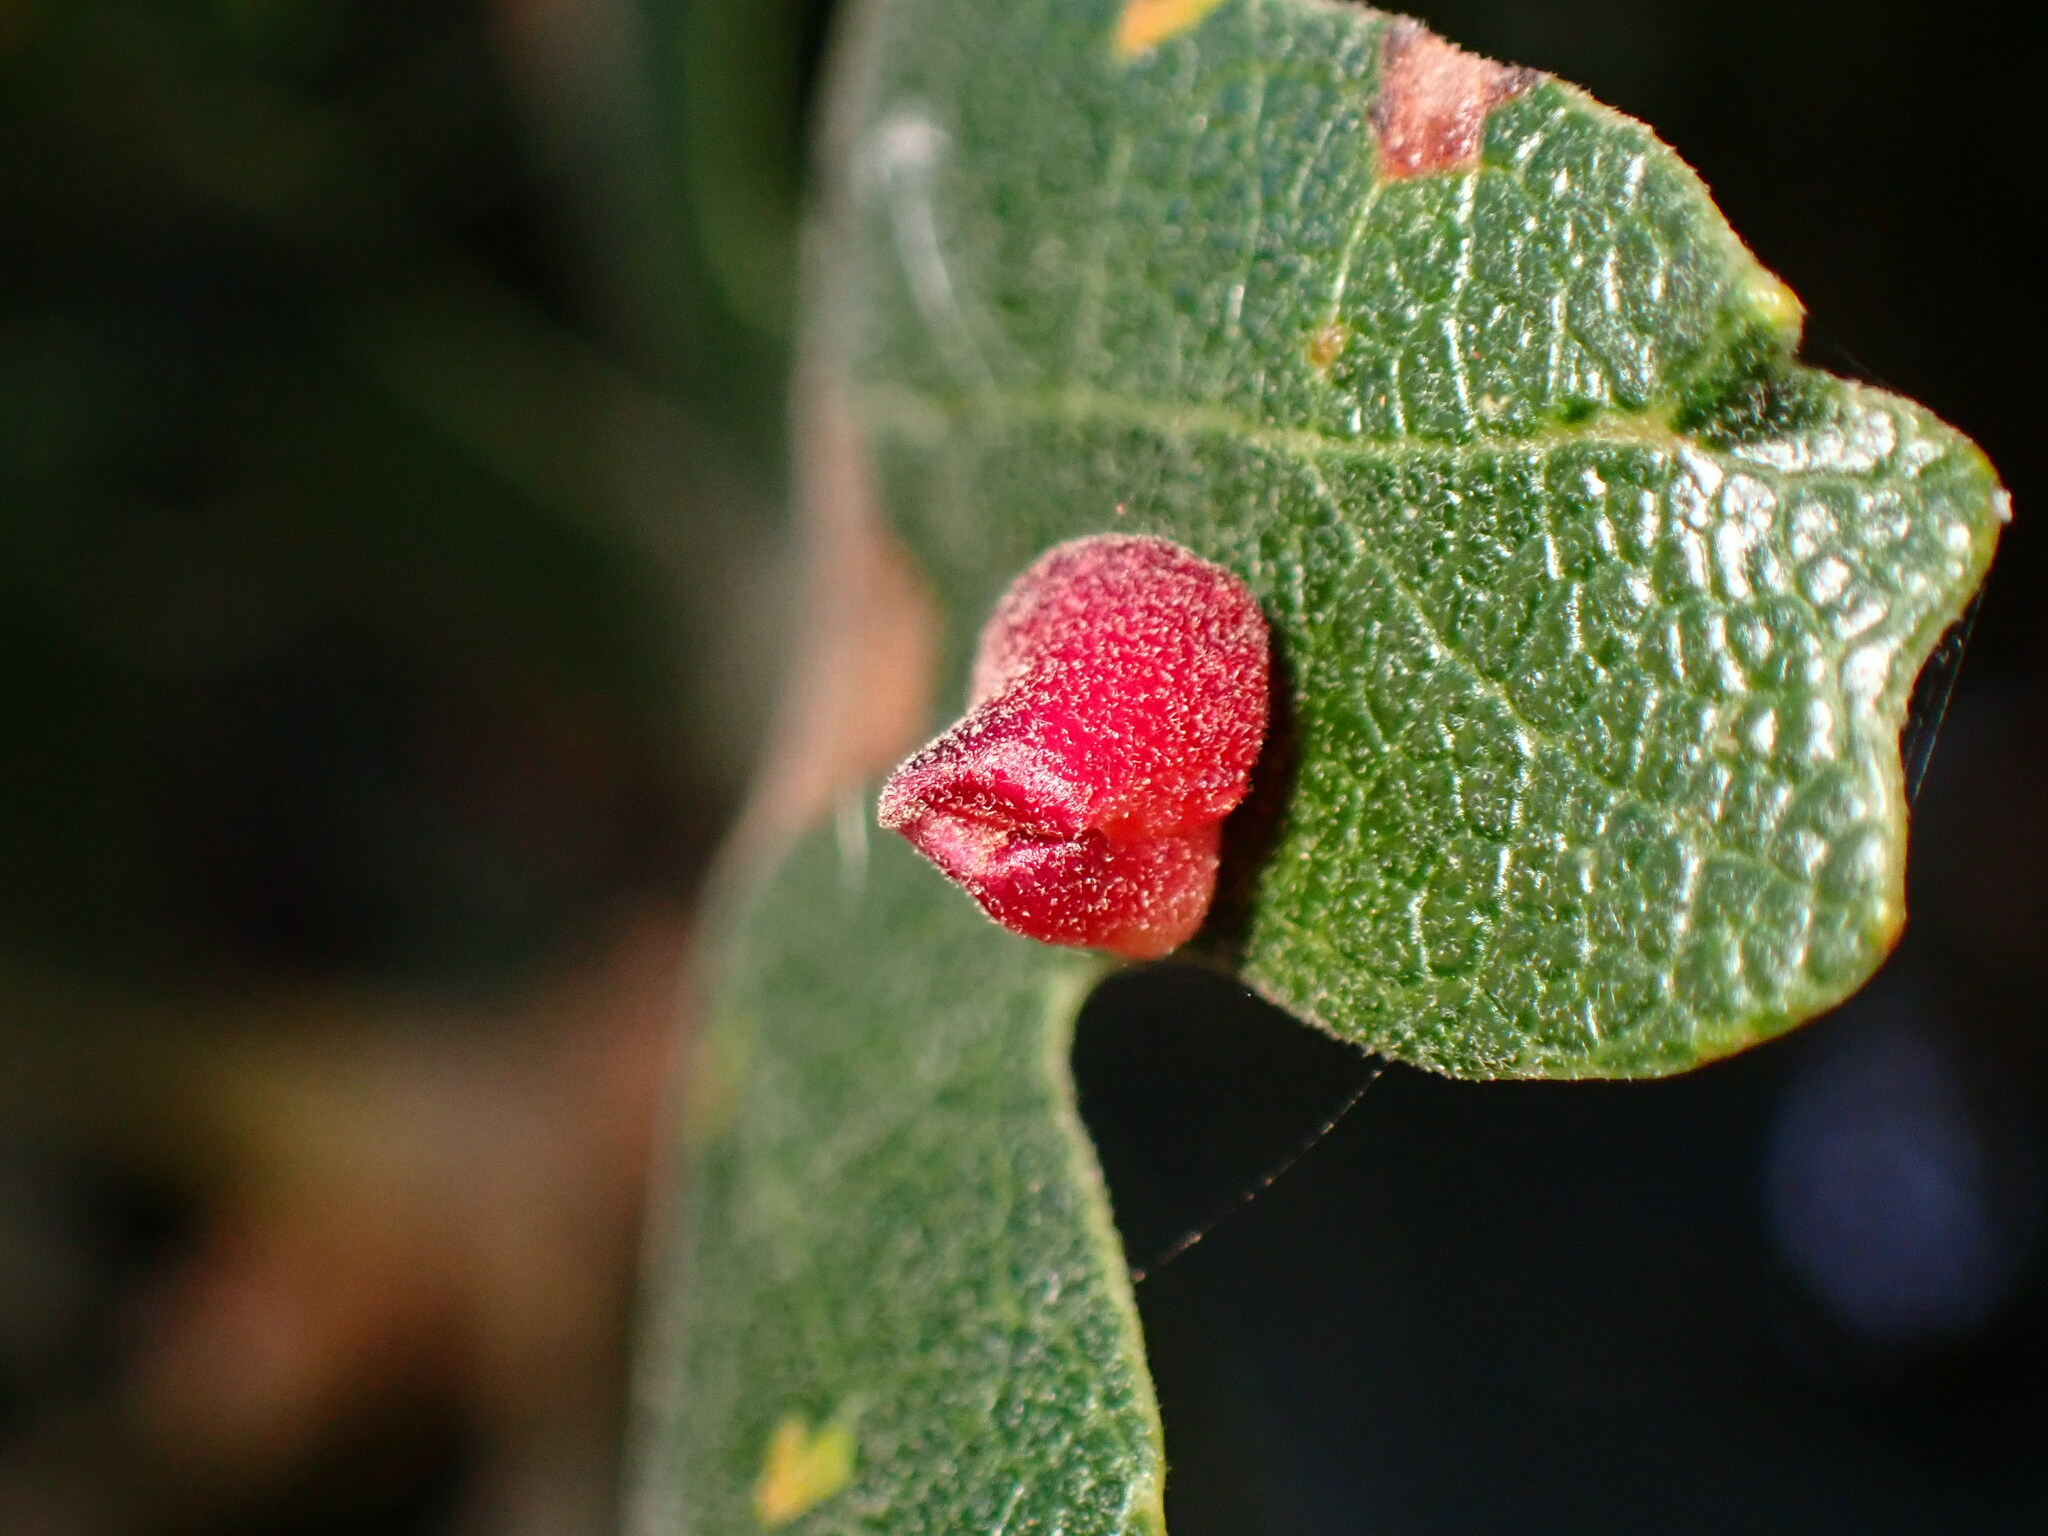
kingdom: Animalia
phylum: Arthropoda
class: Insecta
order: Hymenoptera
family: Cynipidae
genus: Andricus
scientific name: Andricus
